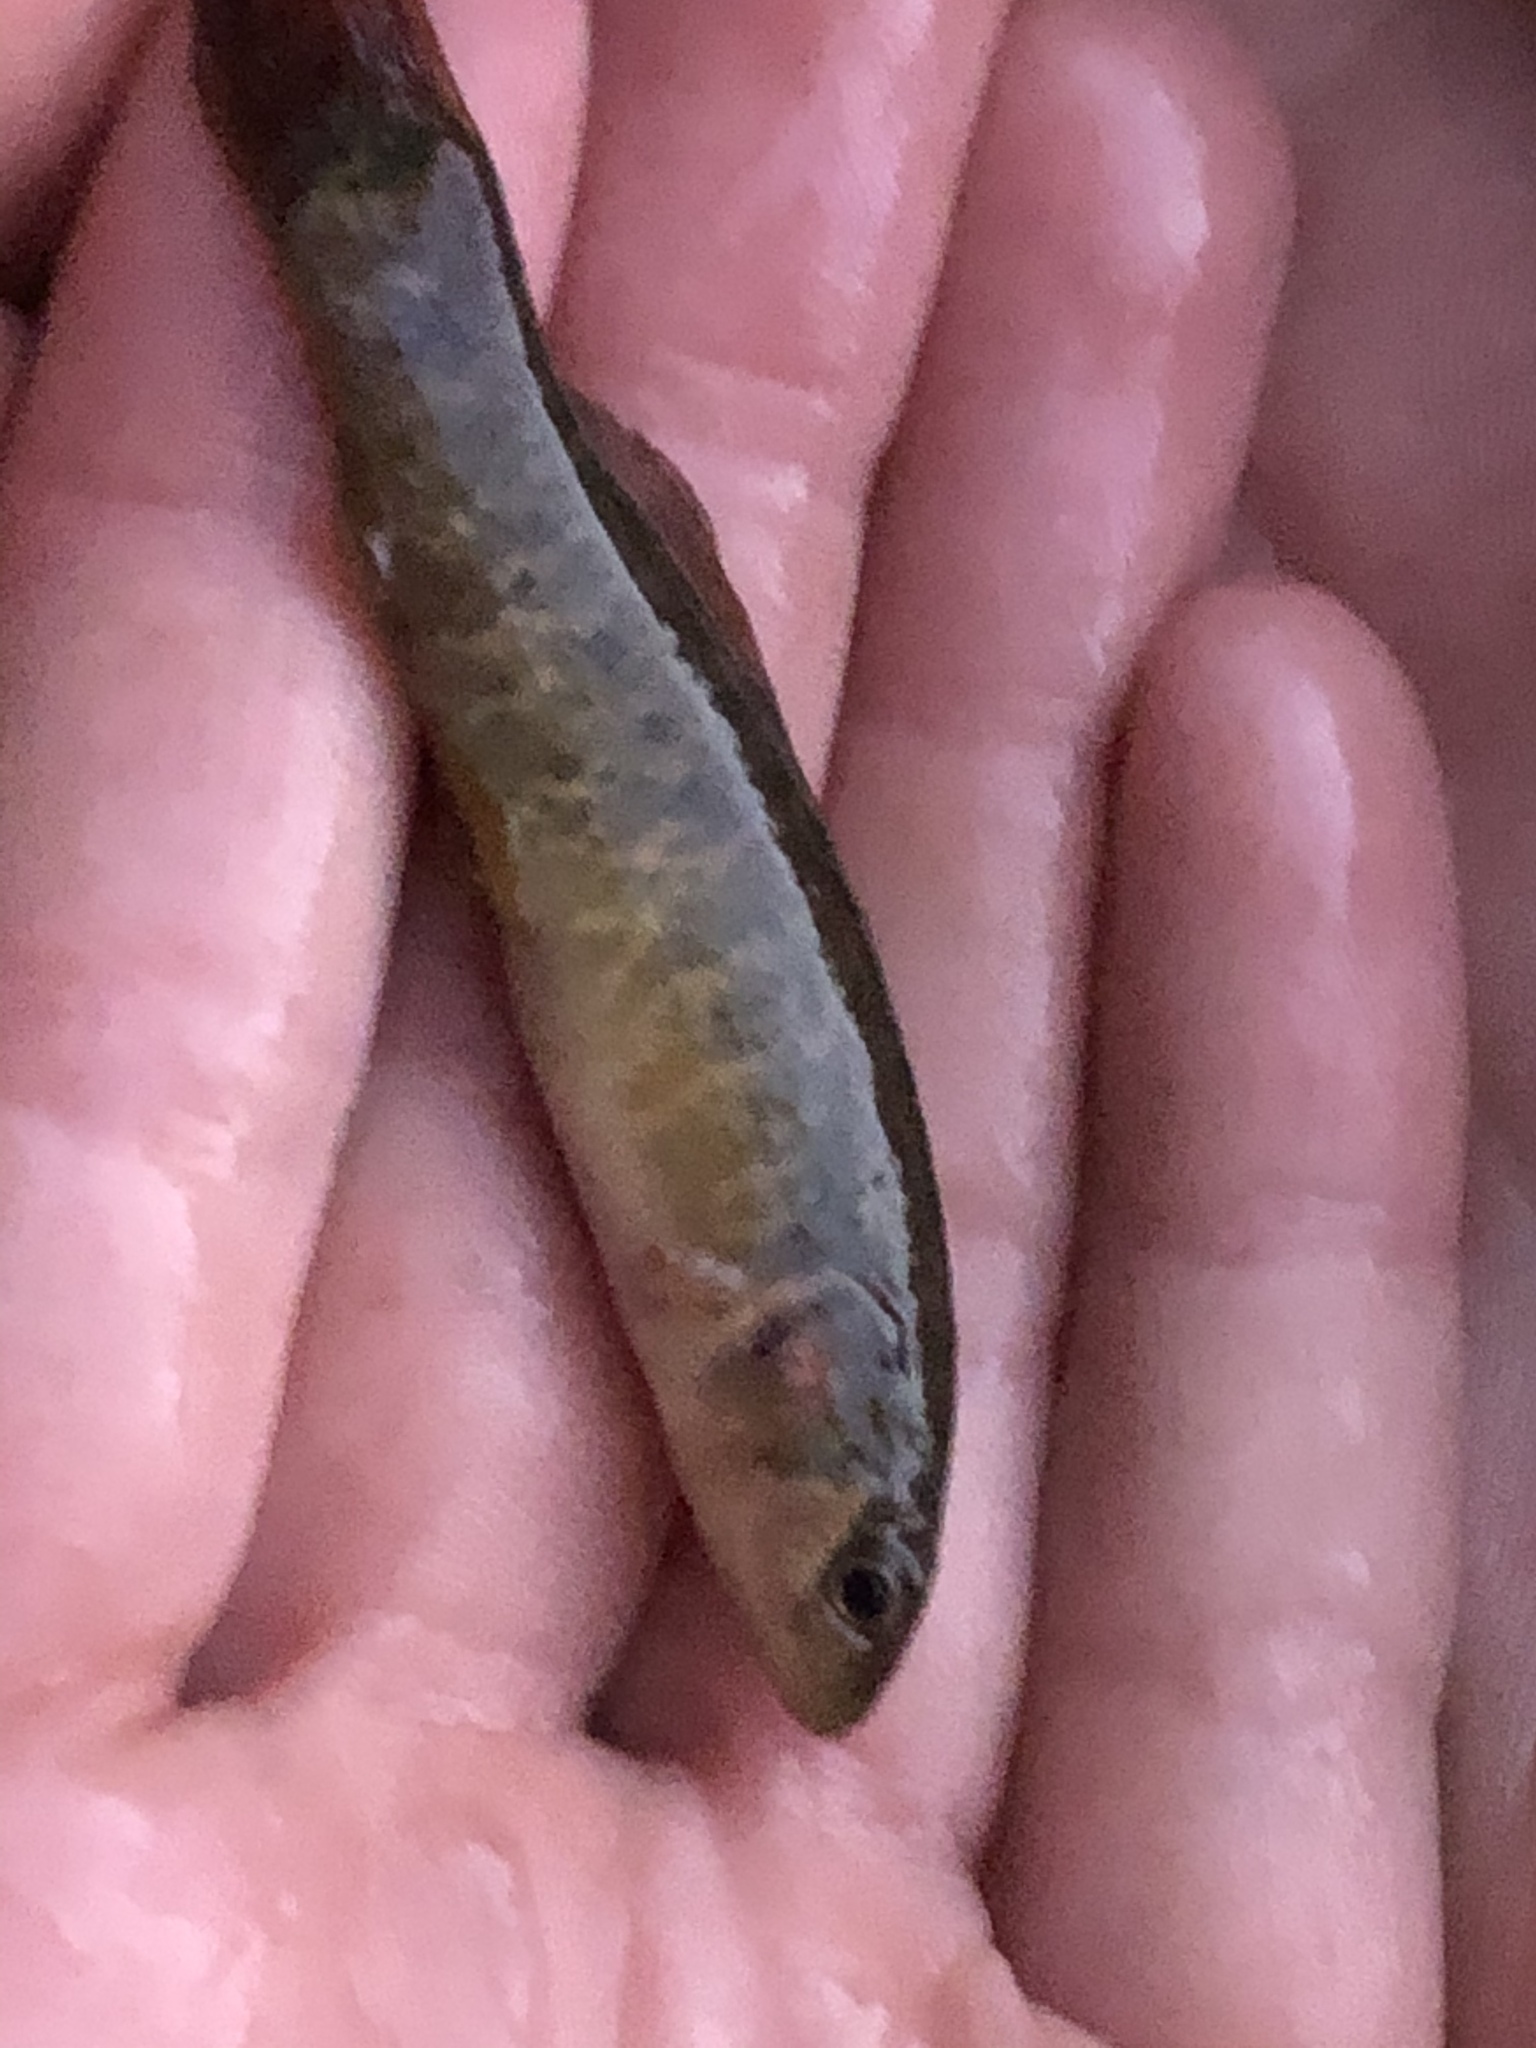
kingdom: Animalia
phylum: Chordata
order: Esociformes
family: Umbridae
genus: Umbra
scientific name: Umbra limi
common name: Central mudminnow
